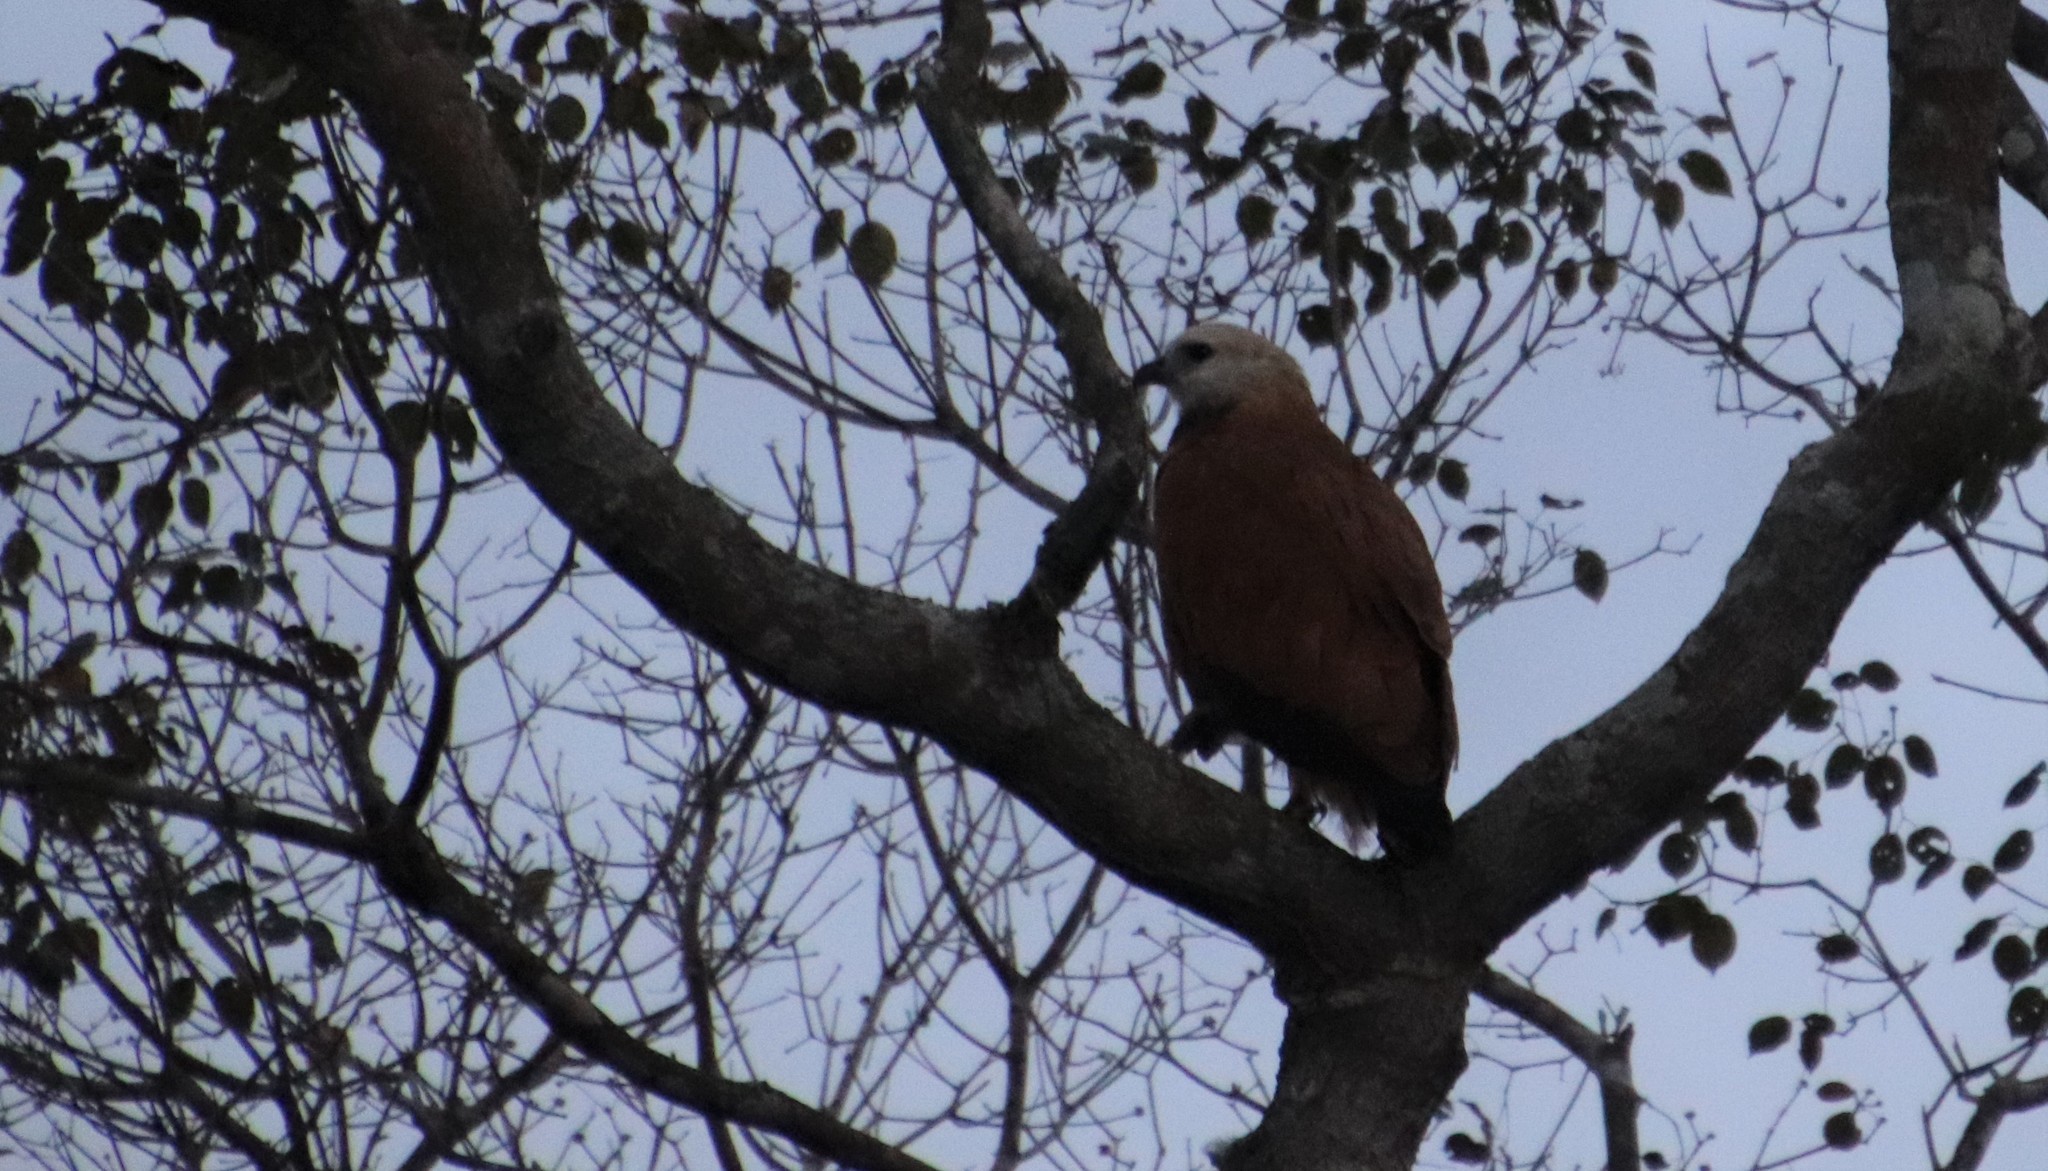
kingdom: Animalia
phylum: Chordata
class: Aves
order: Accipitriformes
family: Accipitridae
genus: Busarellus
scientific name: Busarellus nigricollis
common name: Black-collared hawk
